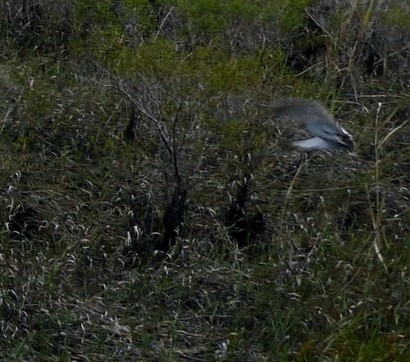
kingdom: Animalia
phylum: Chordata
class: Aves
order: Charadriiformes
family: Scolopacidae
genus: Gallinago
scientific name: Gallinago delicata
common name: Wilson's snipe
